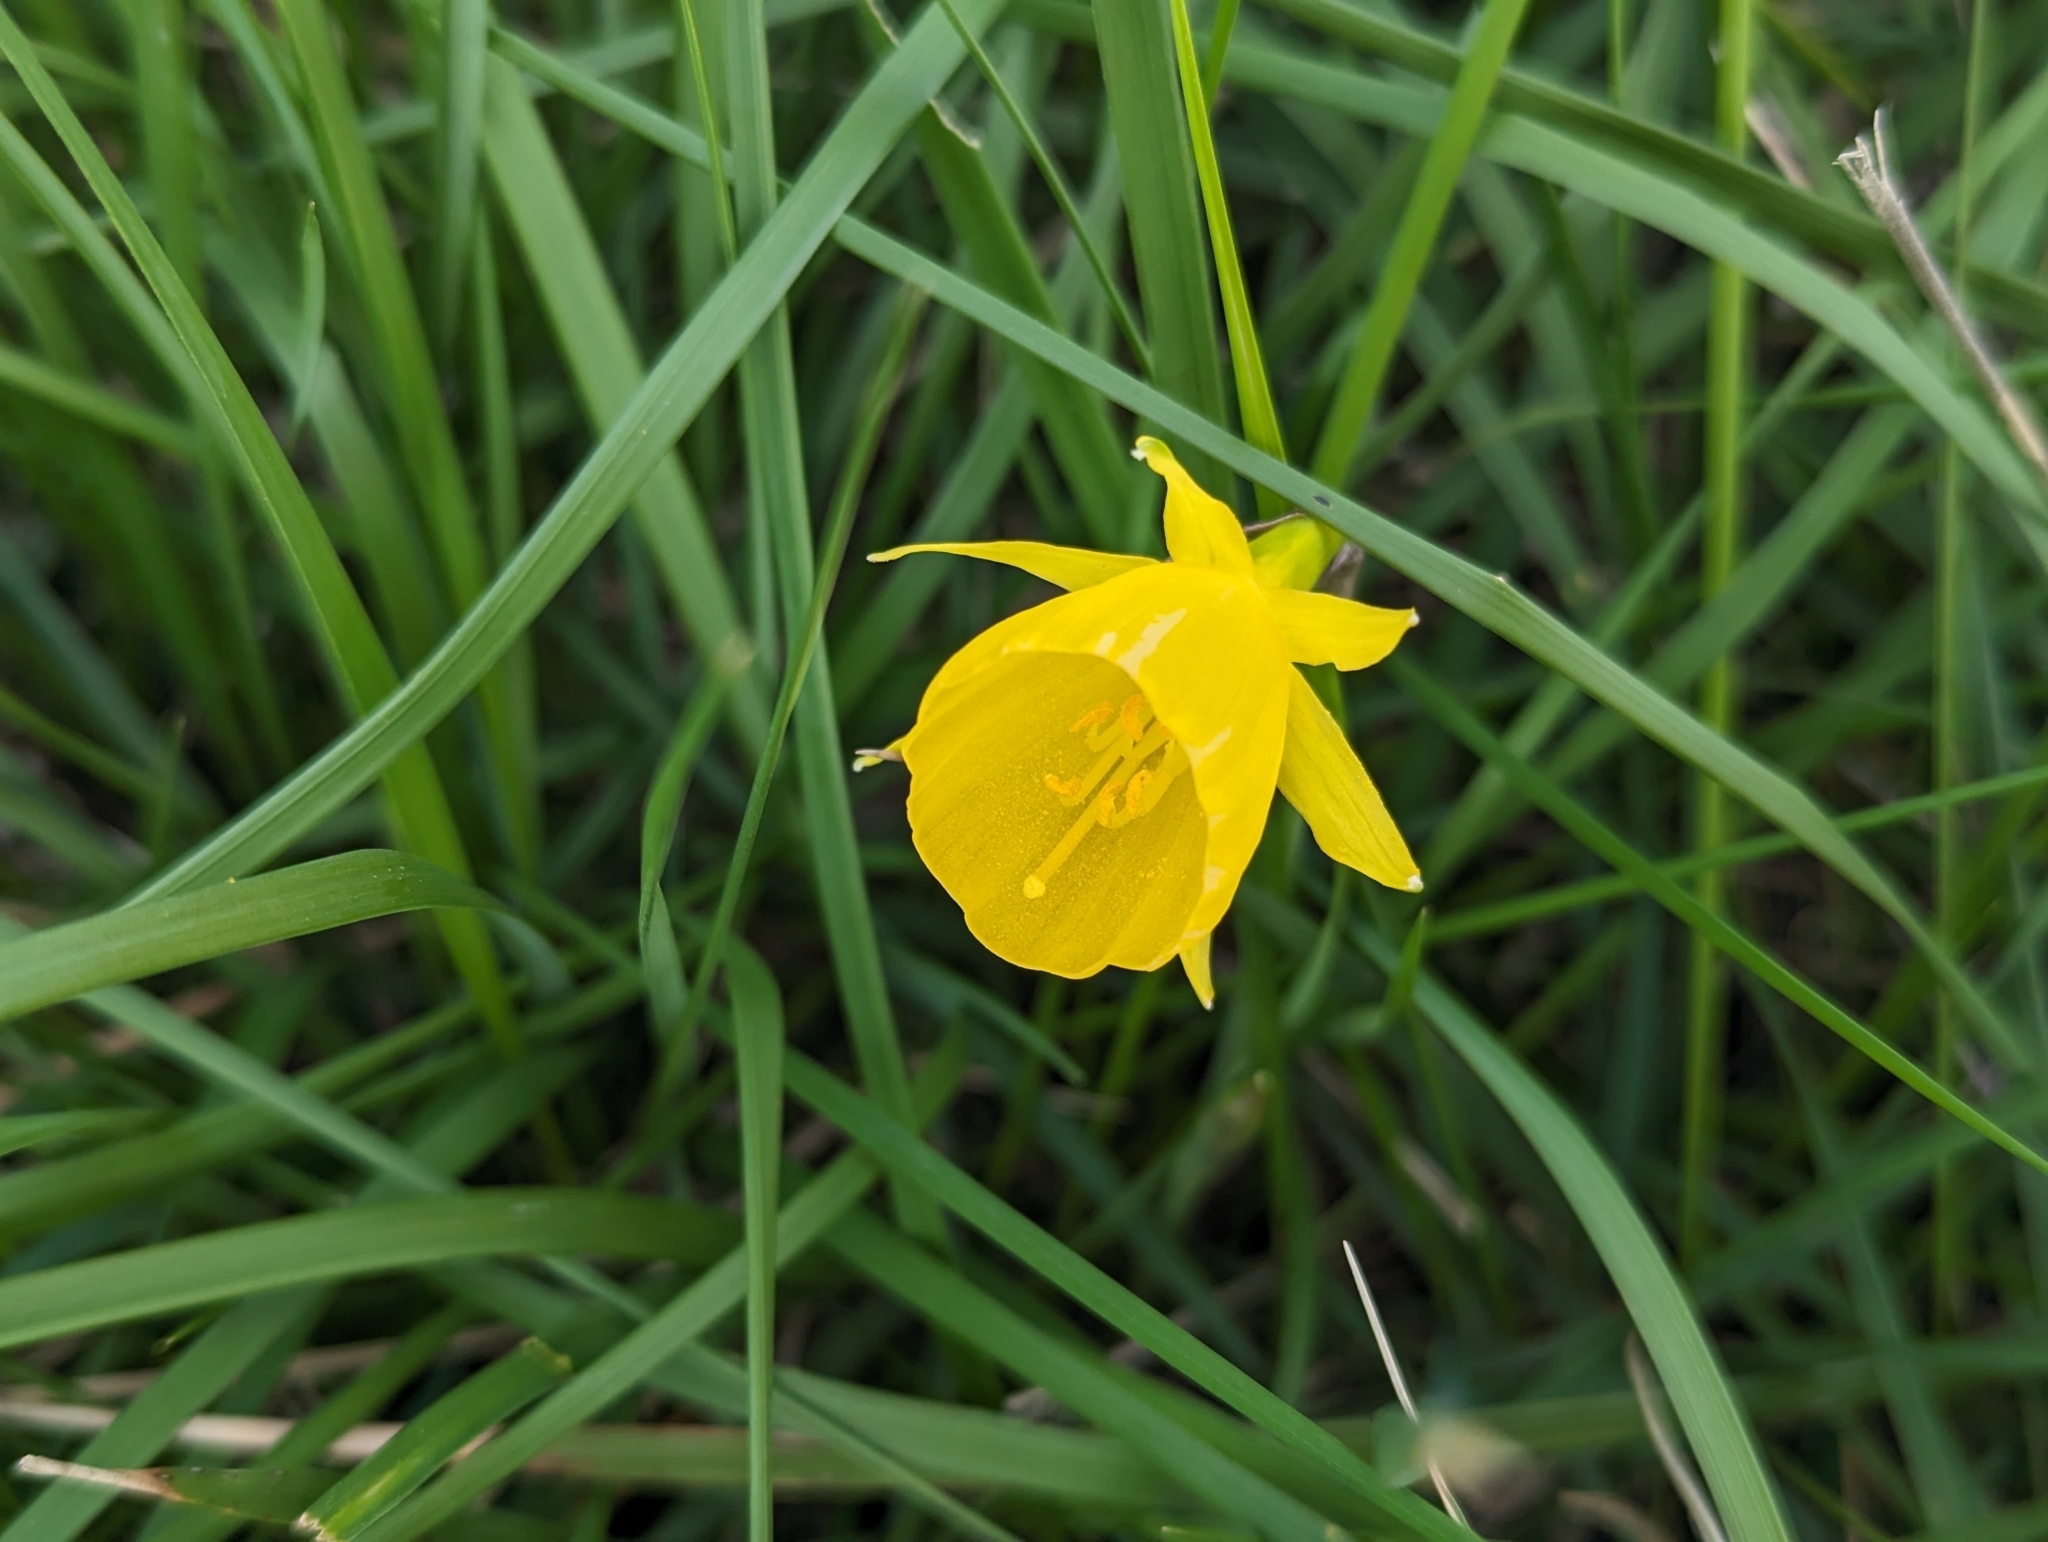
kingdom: Plantae
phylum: Tracheophyta
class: Liliopsida
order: Asparagales
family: Amaryllidaceae
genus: Narcissus
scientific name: Narcissus bulbocodium
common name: Hoop-petticoat daffodil
